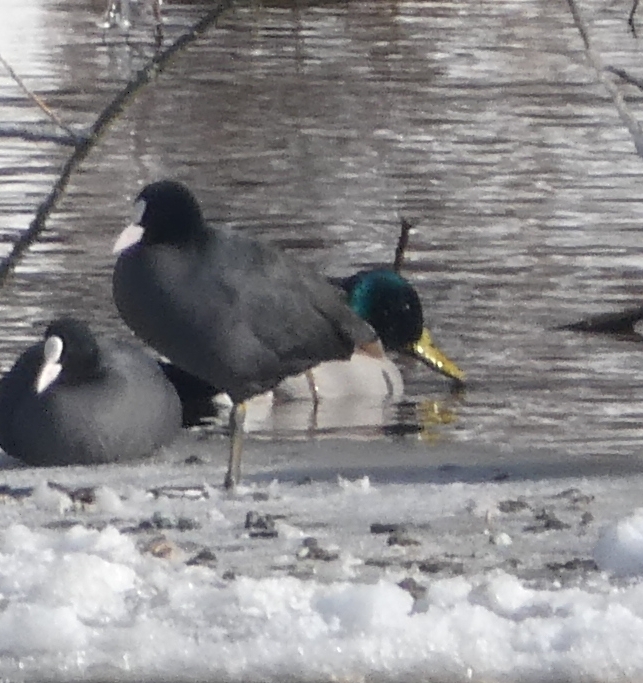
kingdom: Animalia
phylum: Chordata
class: Aves
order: Anseriformes
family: Anatidae
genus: Anas
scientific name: Anas platyrhynchos
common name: Mallard
